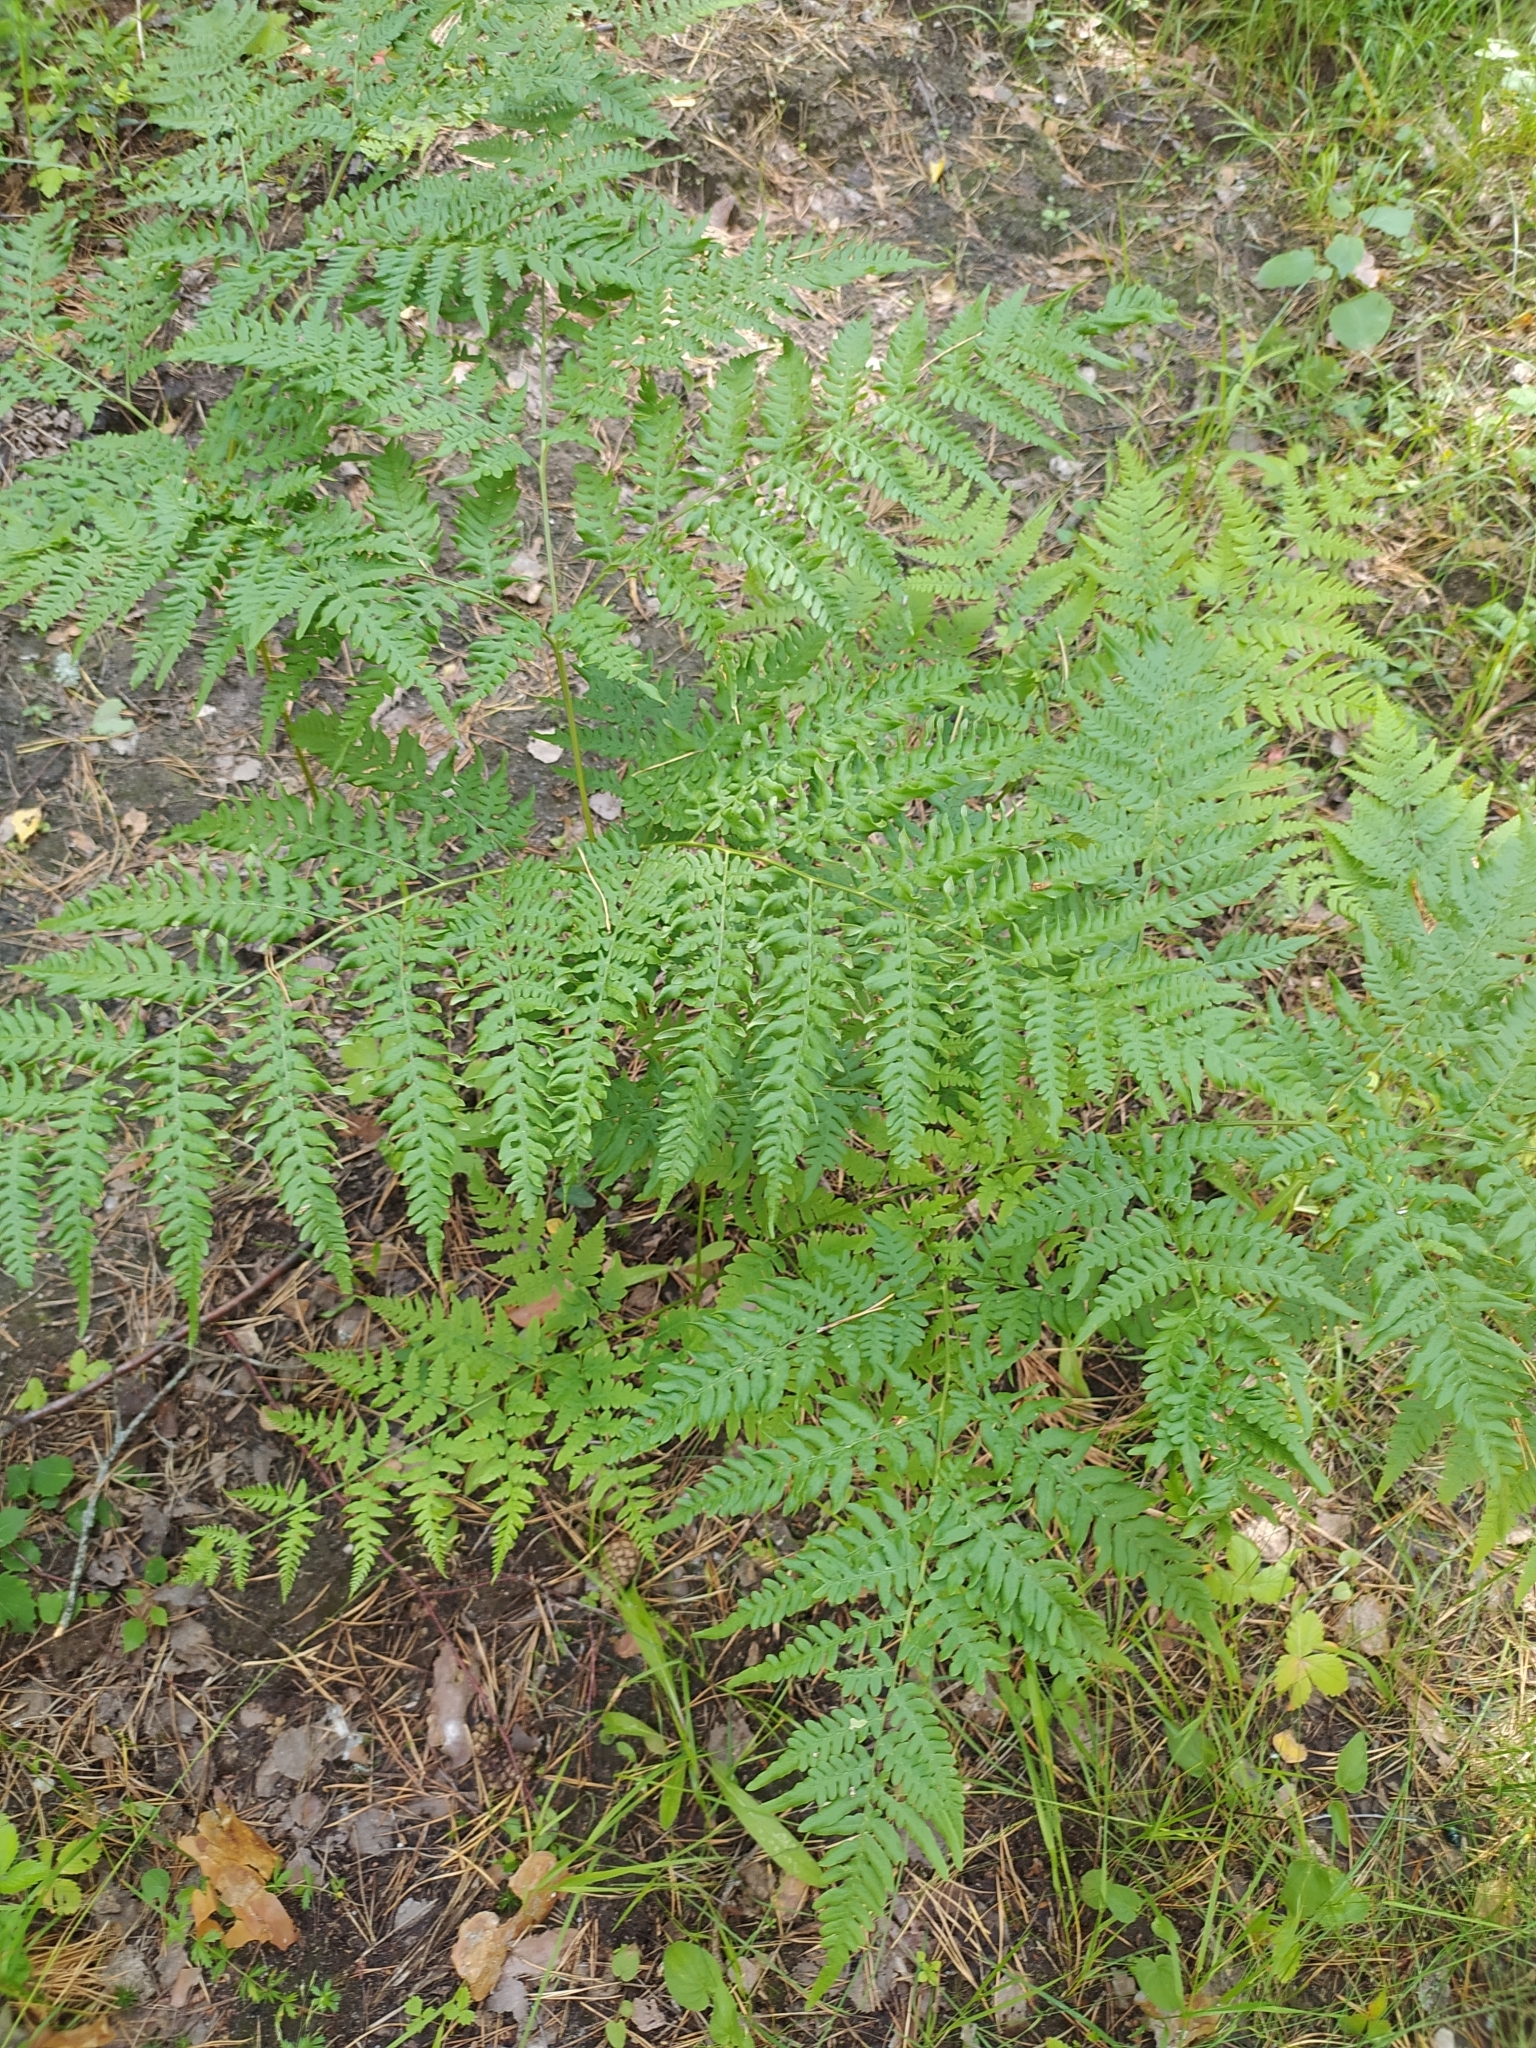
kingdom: Plantae
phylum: Tracheophyta
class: Polypodiopsida
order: Polypodiales
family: Dennstaedtiaceae
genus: Pteridium
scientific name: Pteridium aquilinum
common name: Bracken
